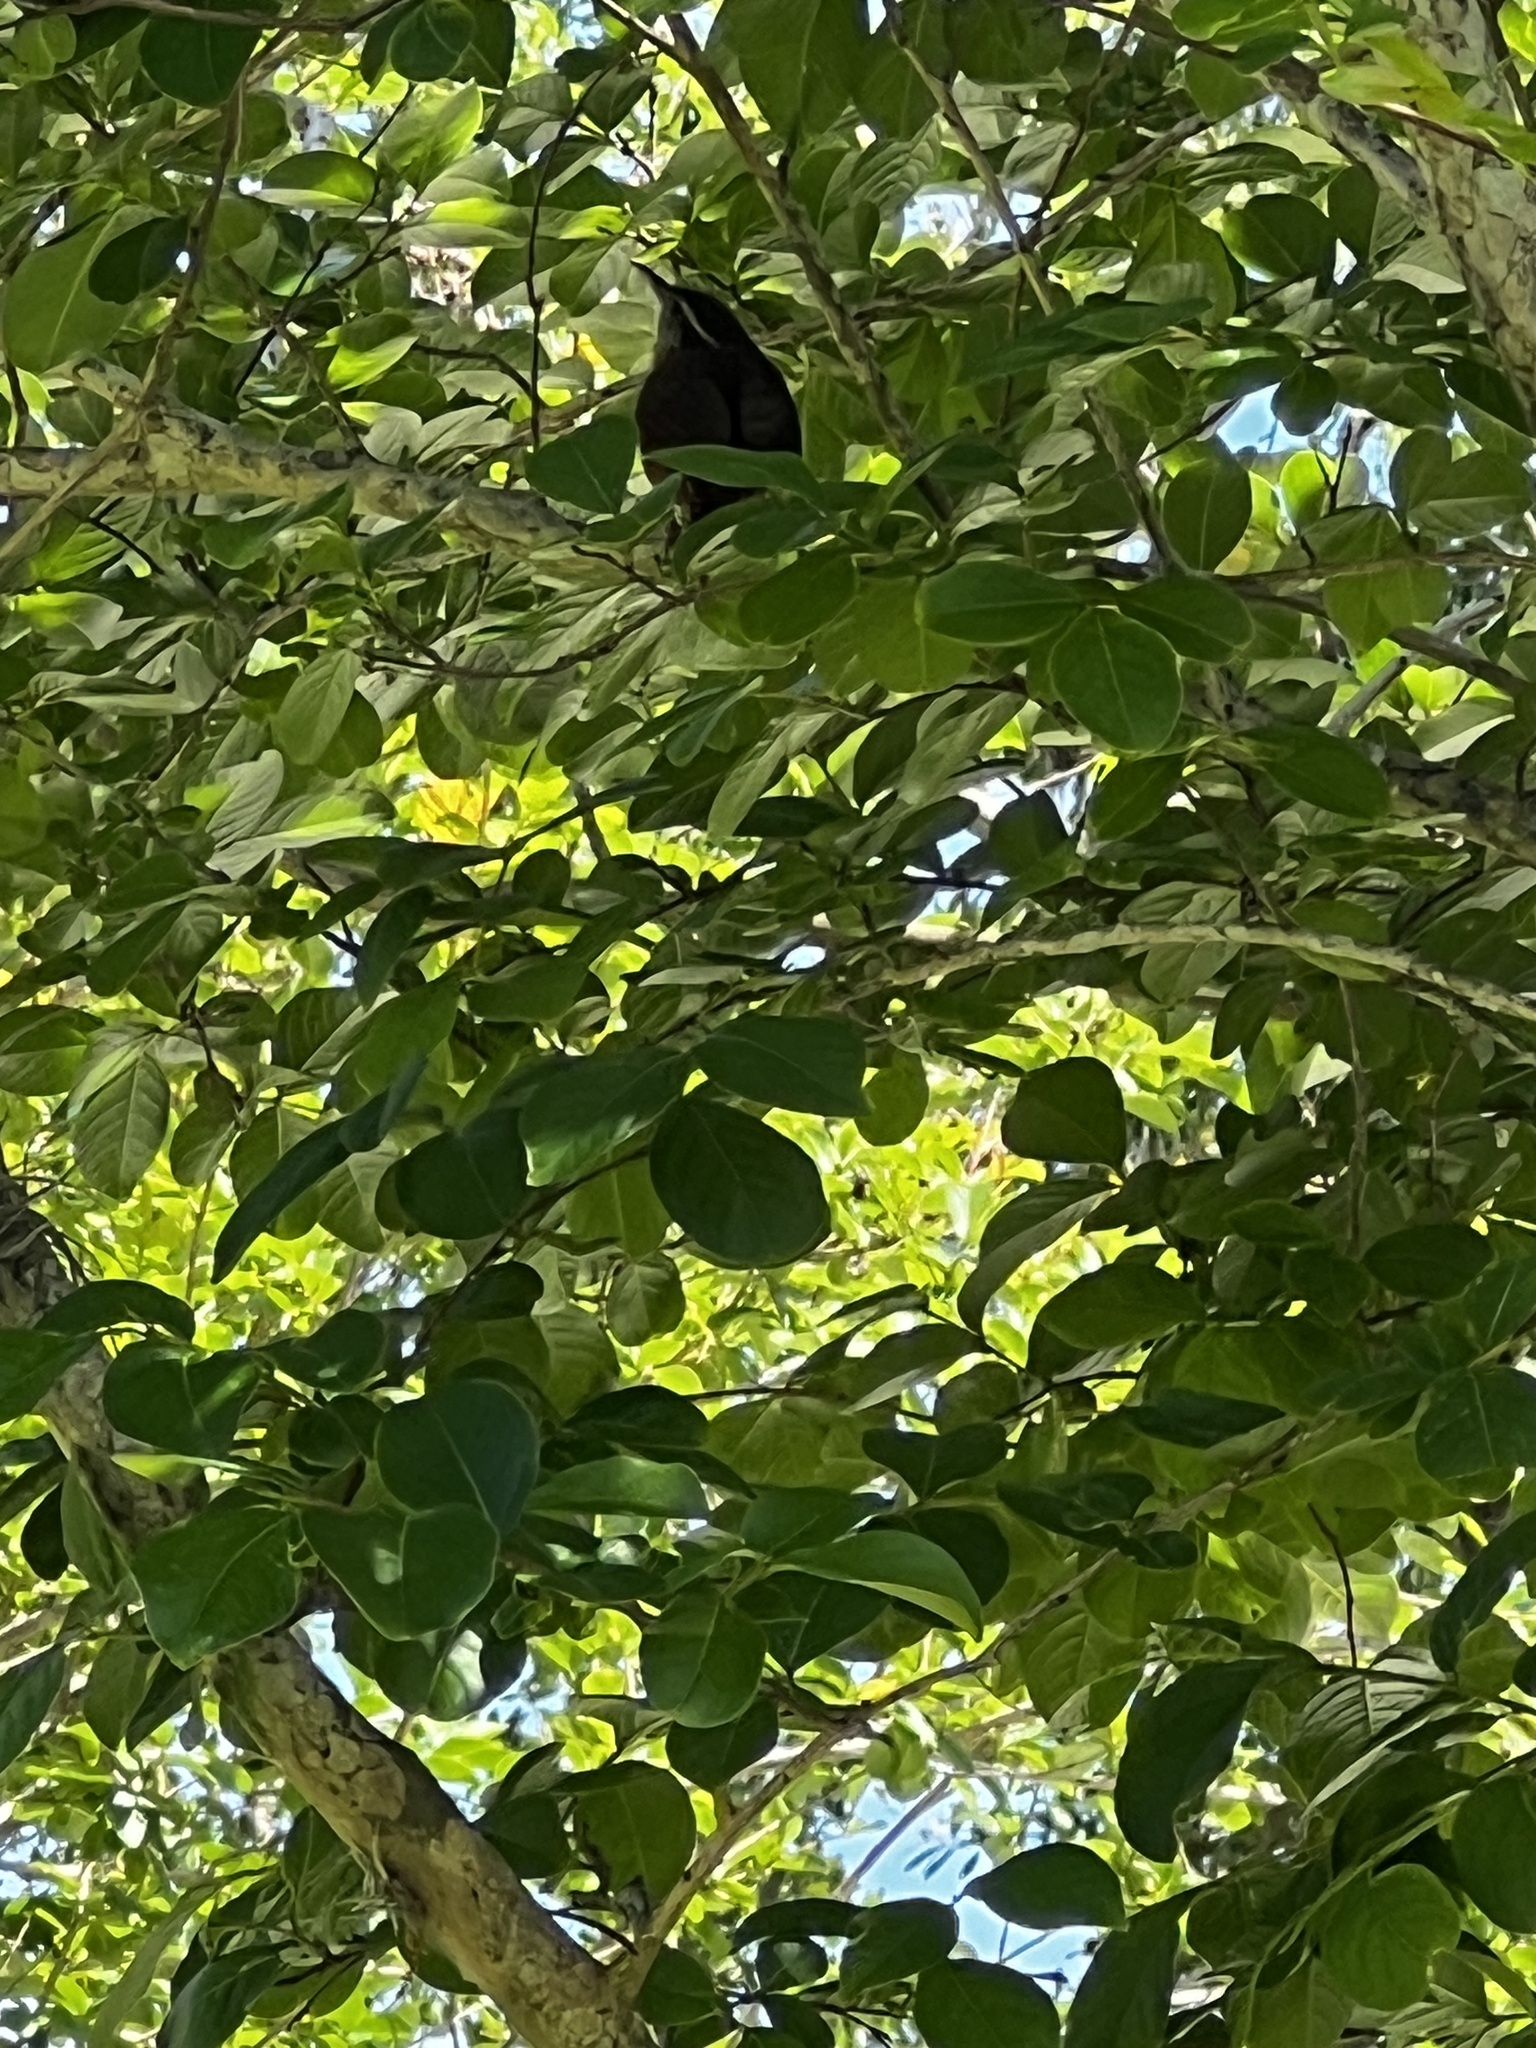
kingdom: Animalia
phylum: Chordata
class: Aves
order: Passeriformes
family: Troglodytidae
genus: Thryothorus
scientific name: Thryothorus ludovicianus
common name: Carolina wren
